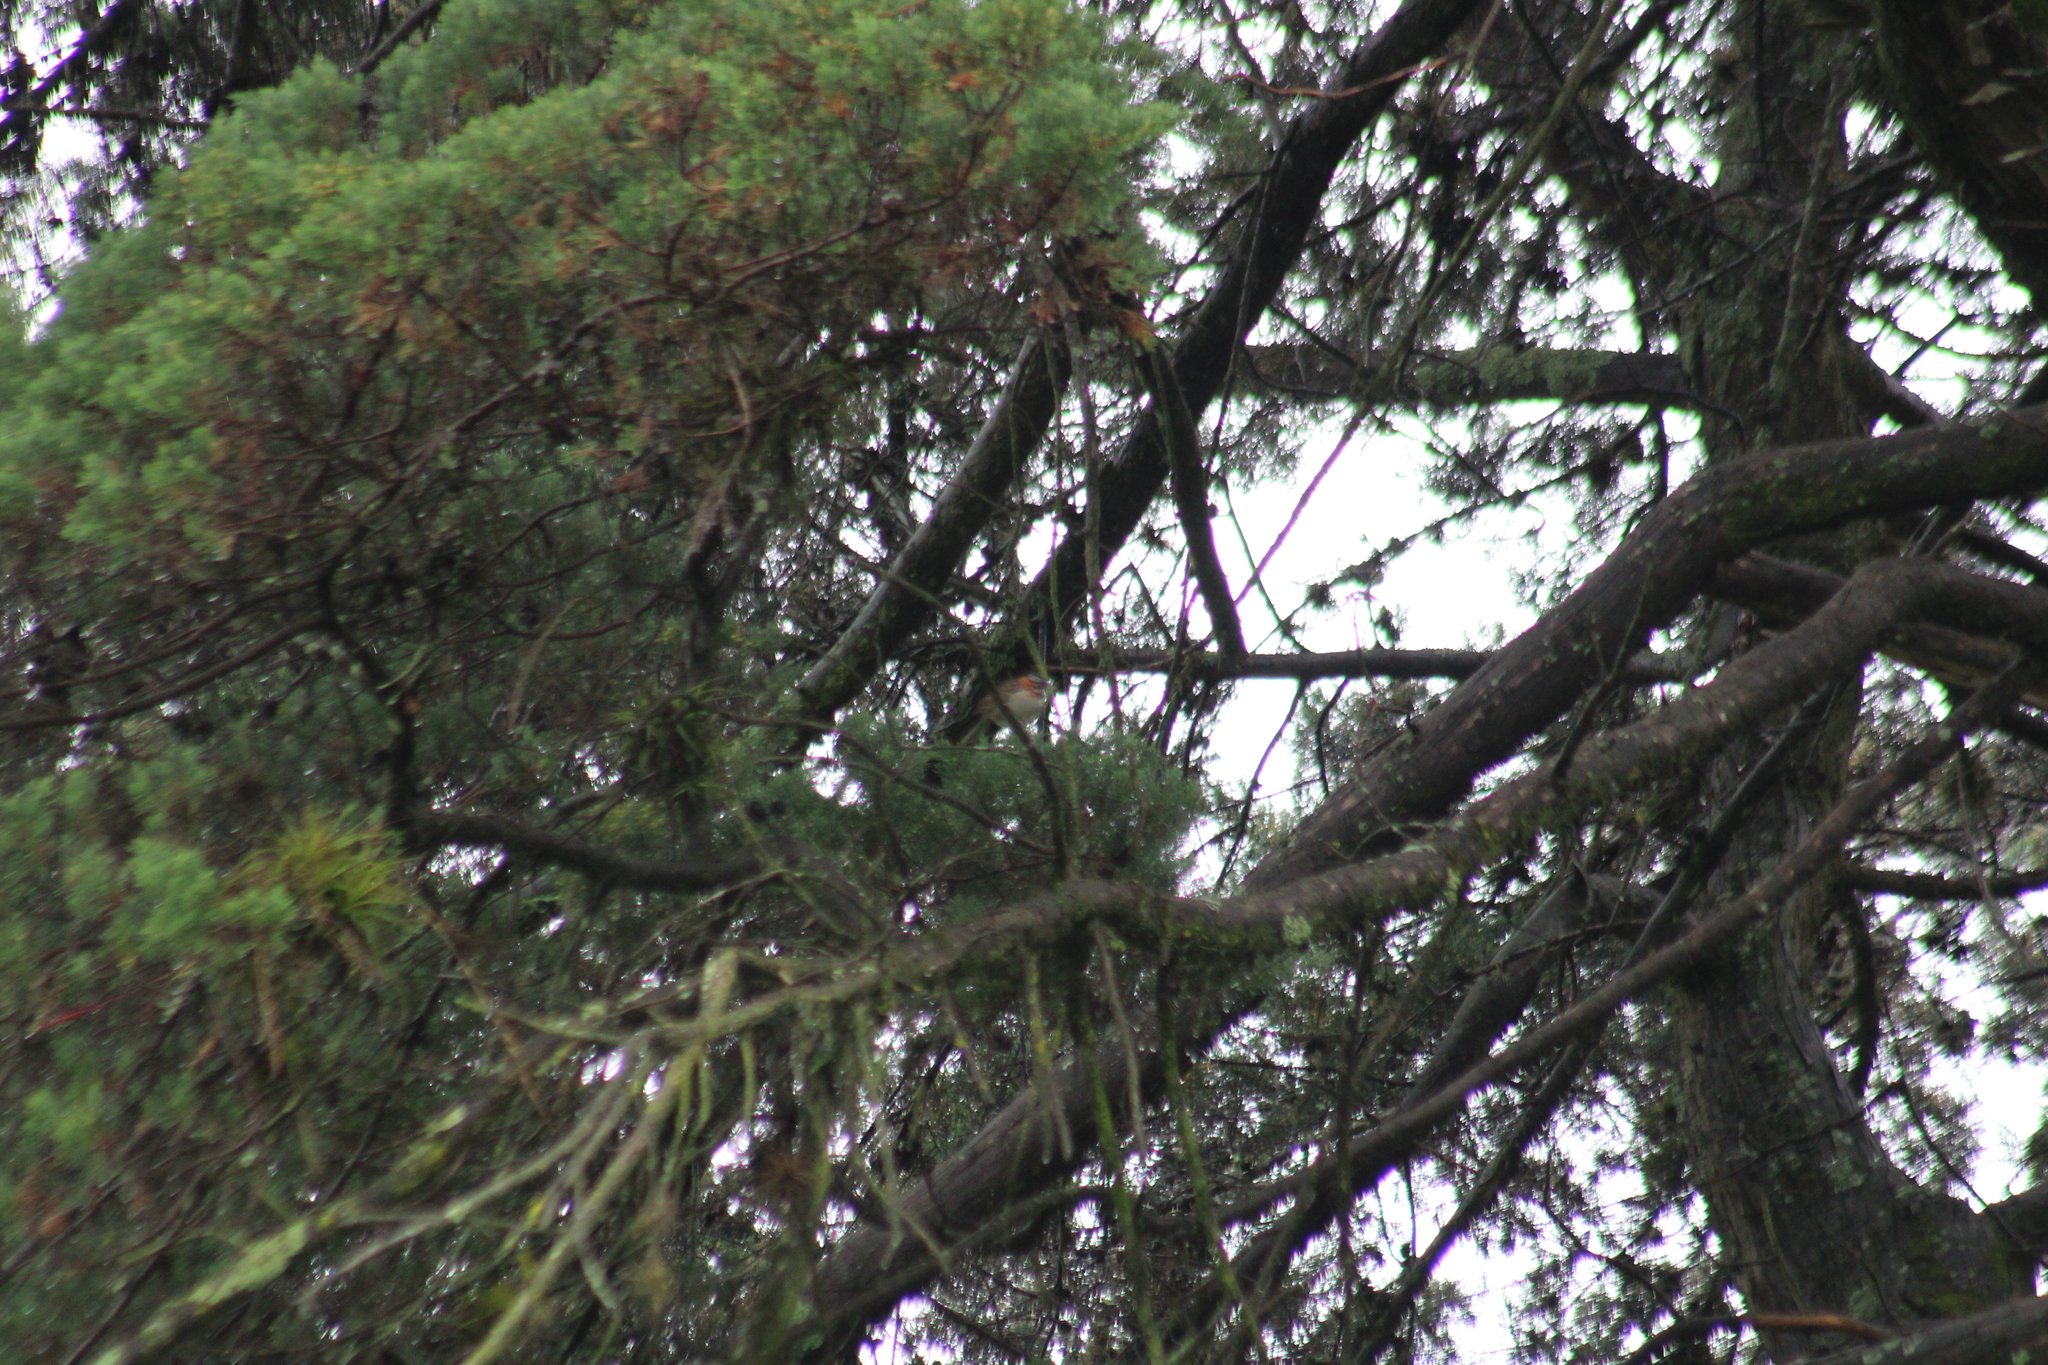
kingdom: Animalia
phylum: Chordata
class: Aves
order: Passeriformes
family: Passerellidae
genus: Zonotrichia
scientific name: Zonotrichia capensis
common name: Rufous-collared sparrow
